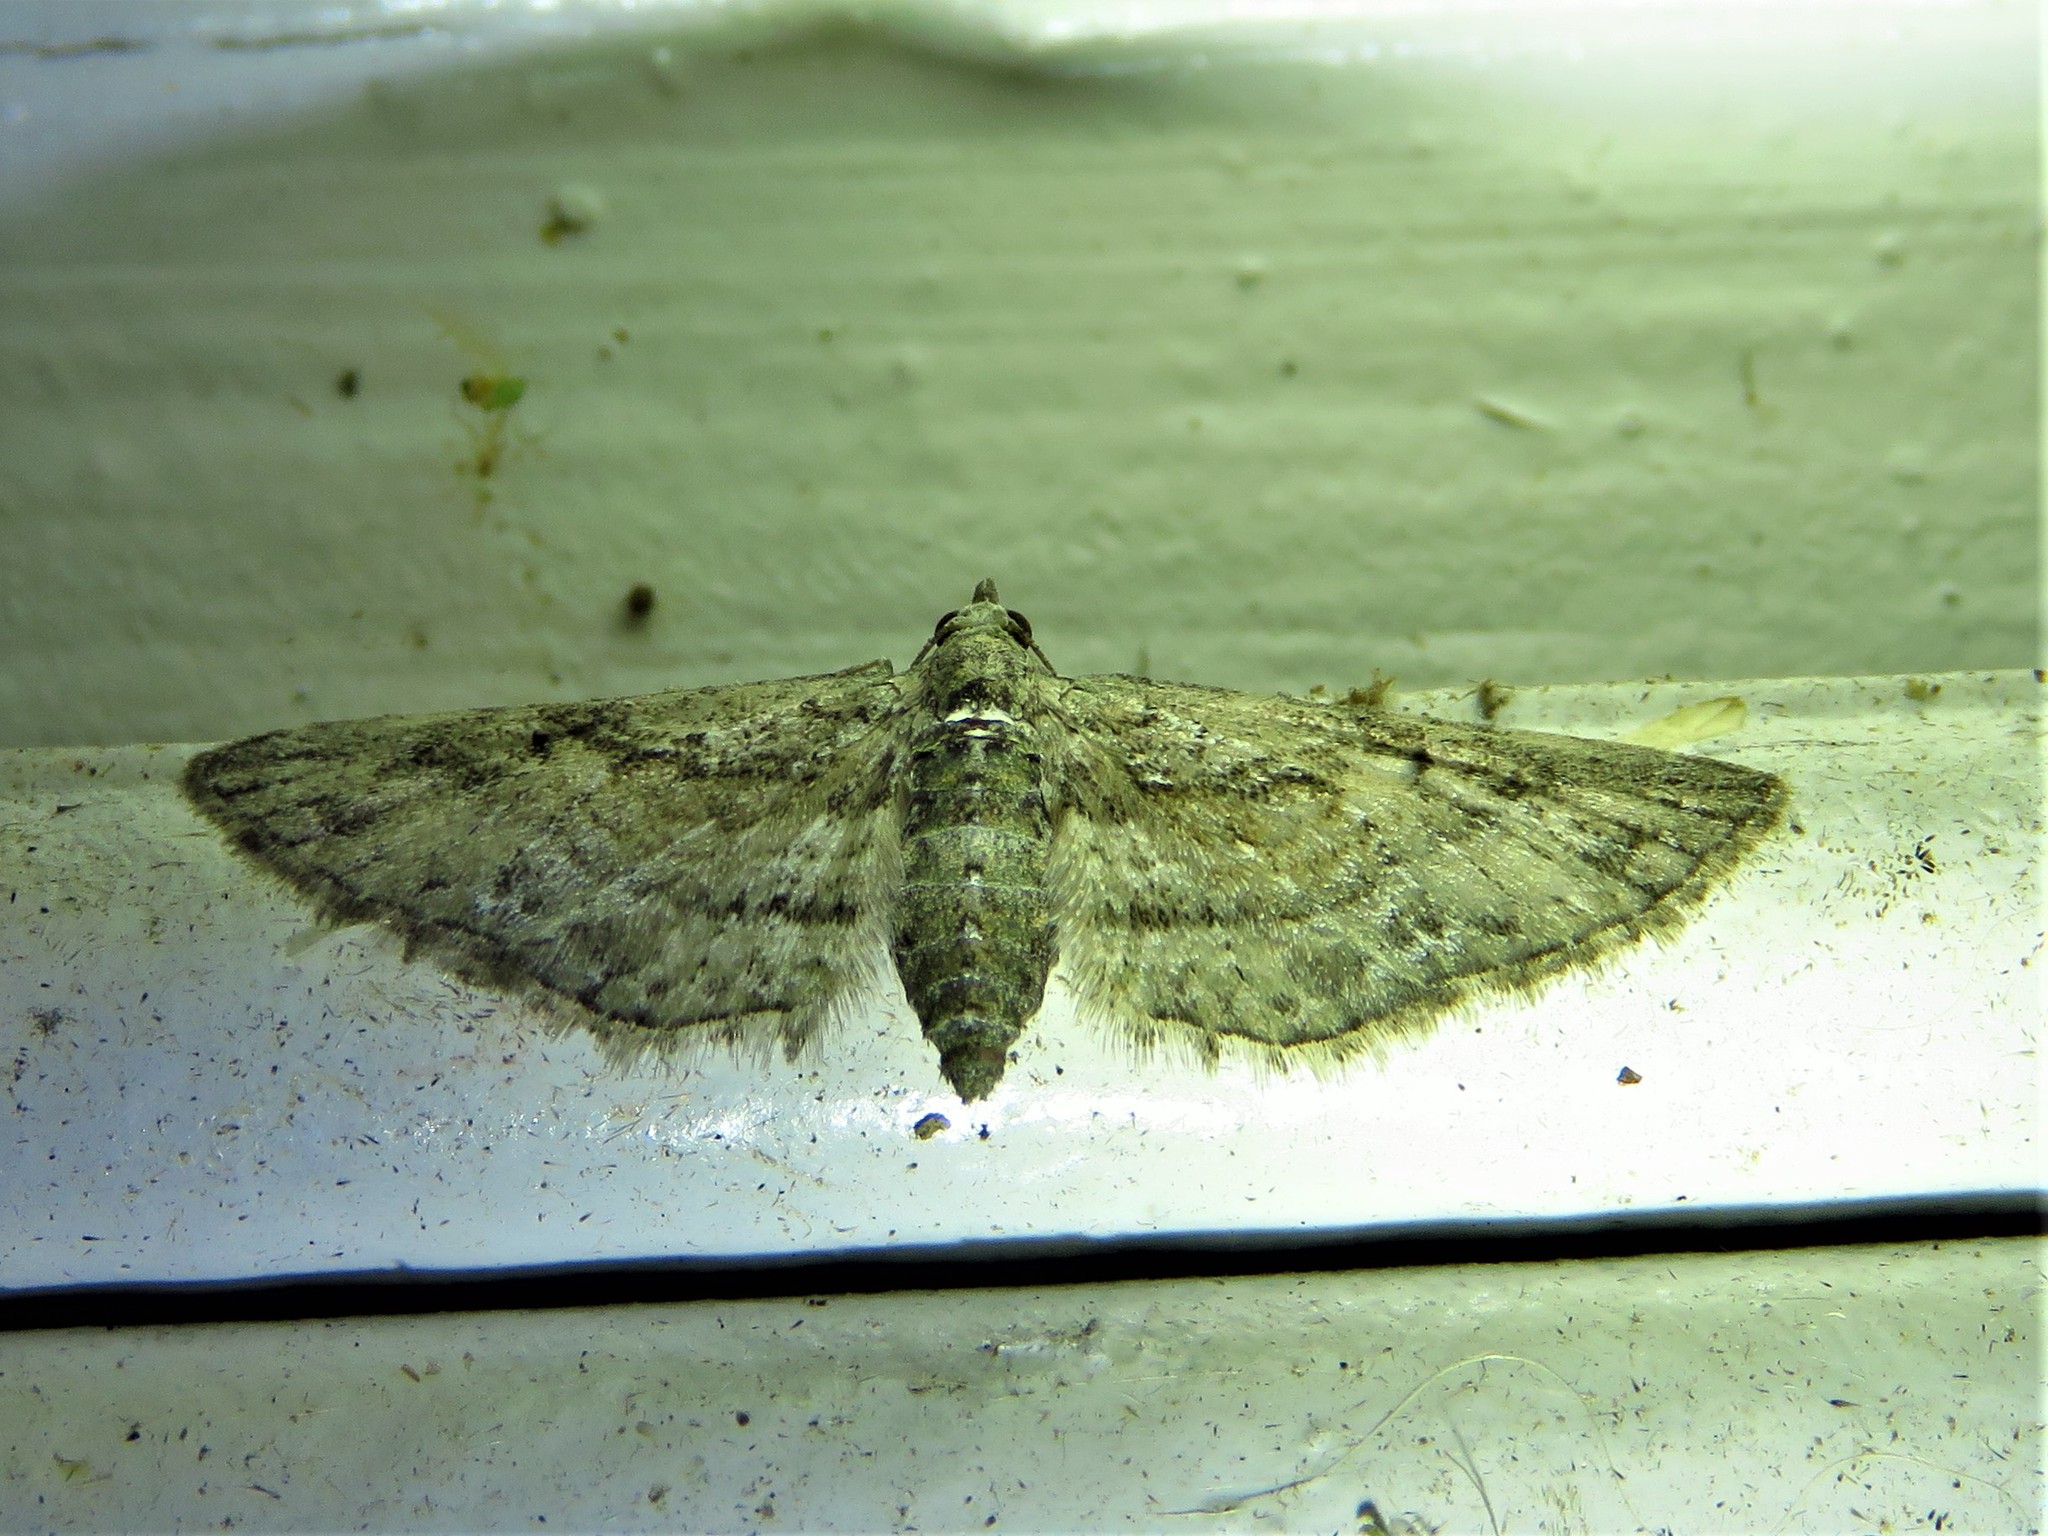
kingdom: Animalia
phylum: Arthropoda
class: Insecta
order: Lepidoptera
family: Geometridae
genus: Eupithecia
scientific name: Eupithecia longidens
